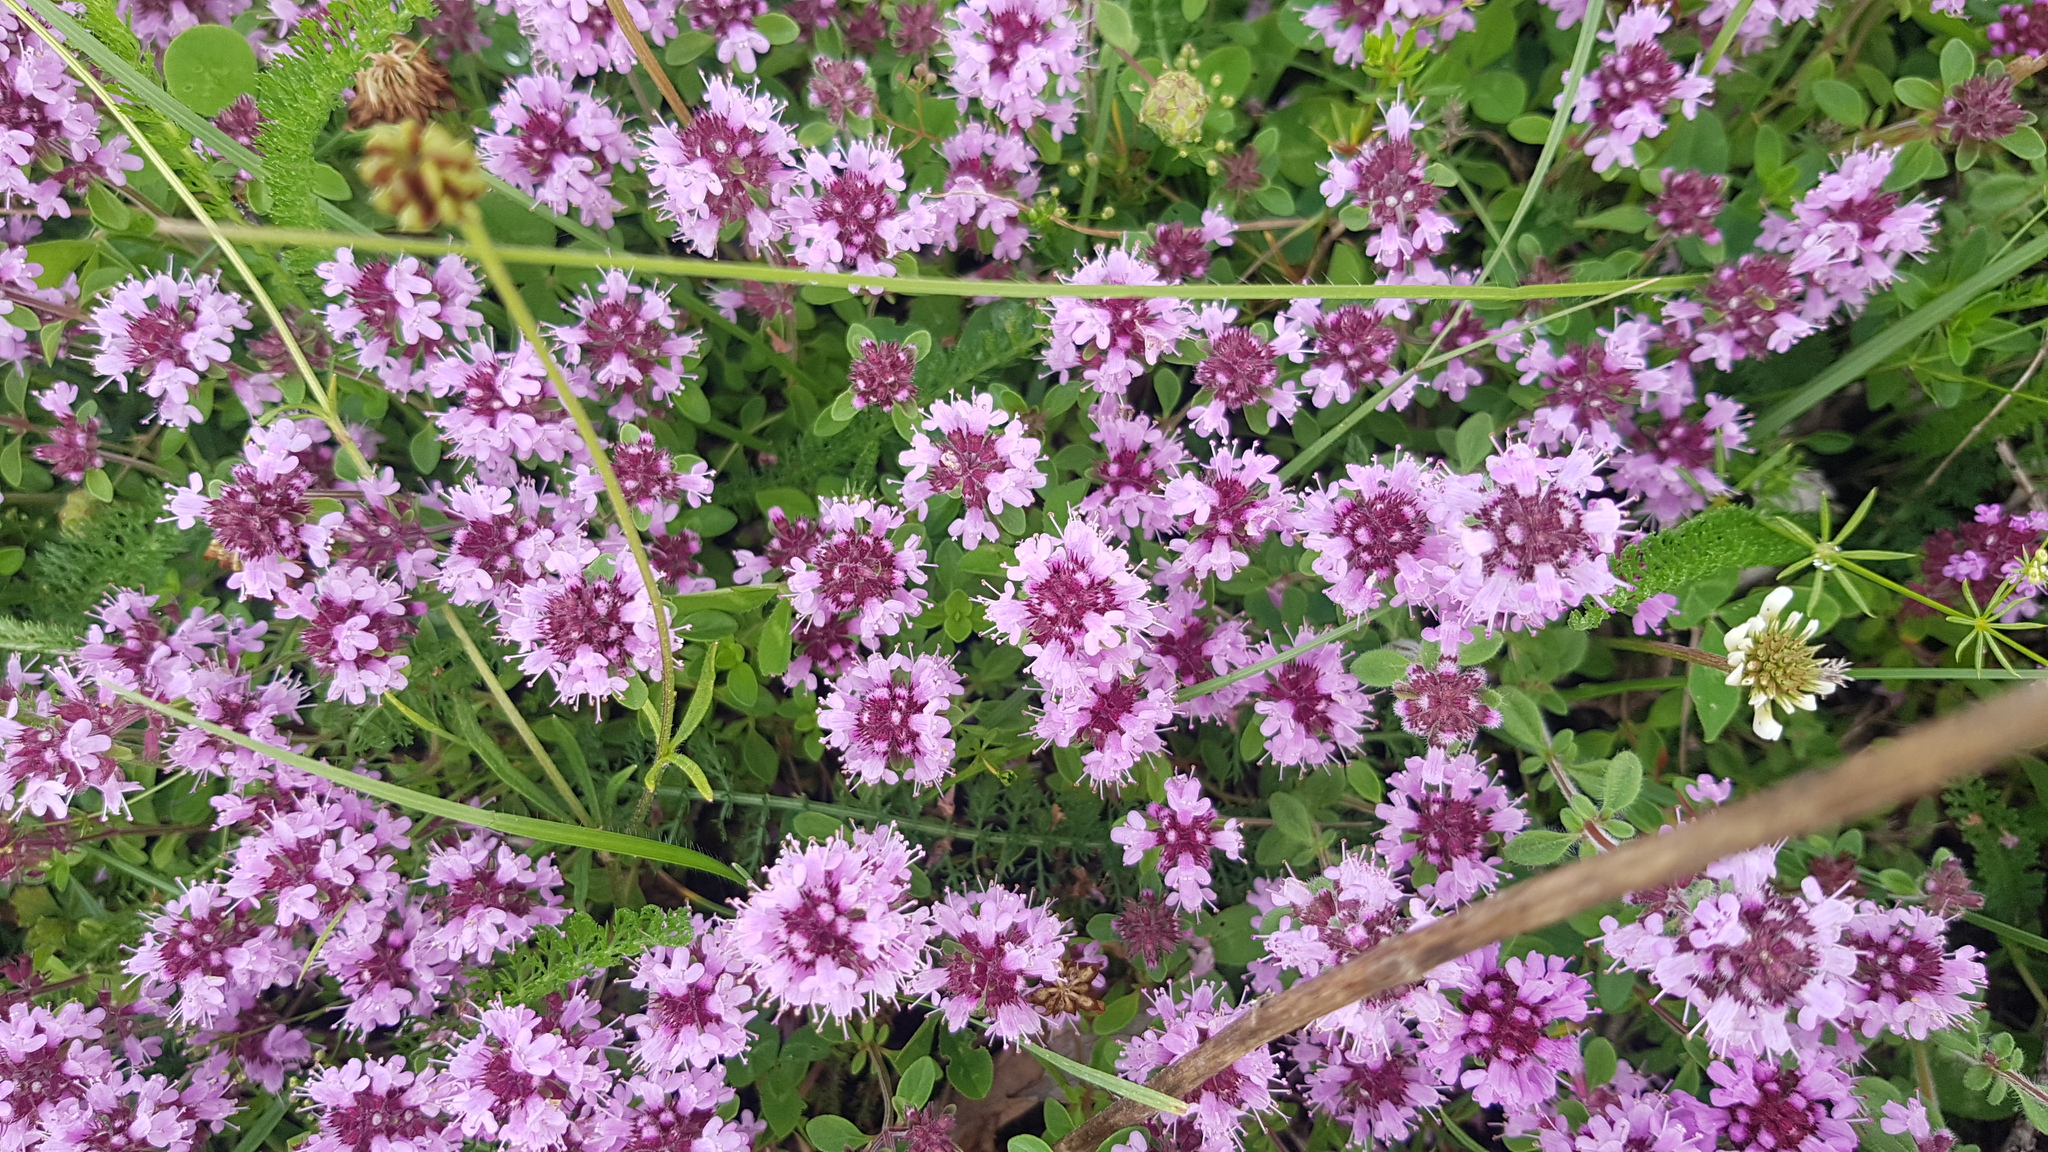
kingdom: Plantae
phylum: Tracheophyta
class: Magnoliopsida
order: Lamiales
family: Lamiaceae
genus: Thymus
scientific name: Thymus pulegioides
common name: Large thyme
